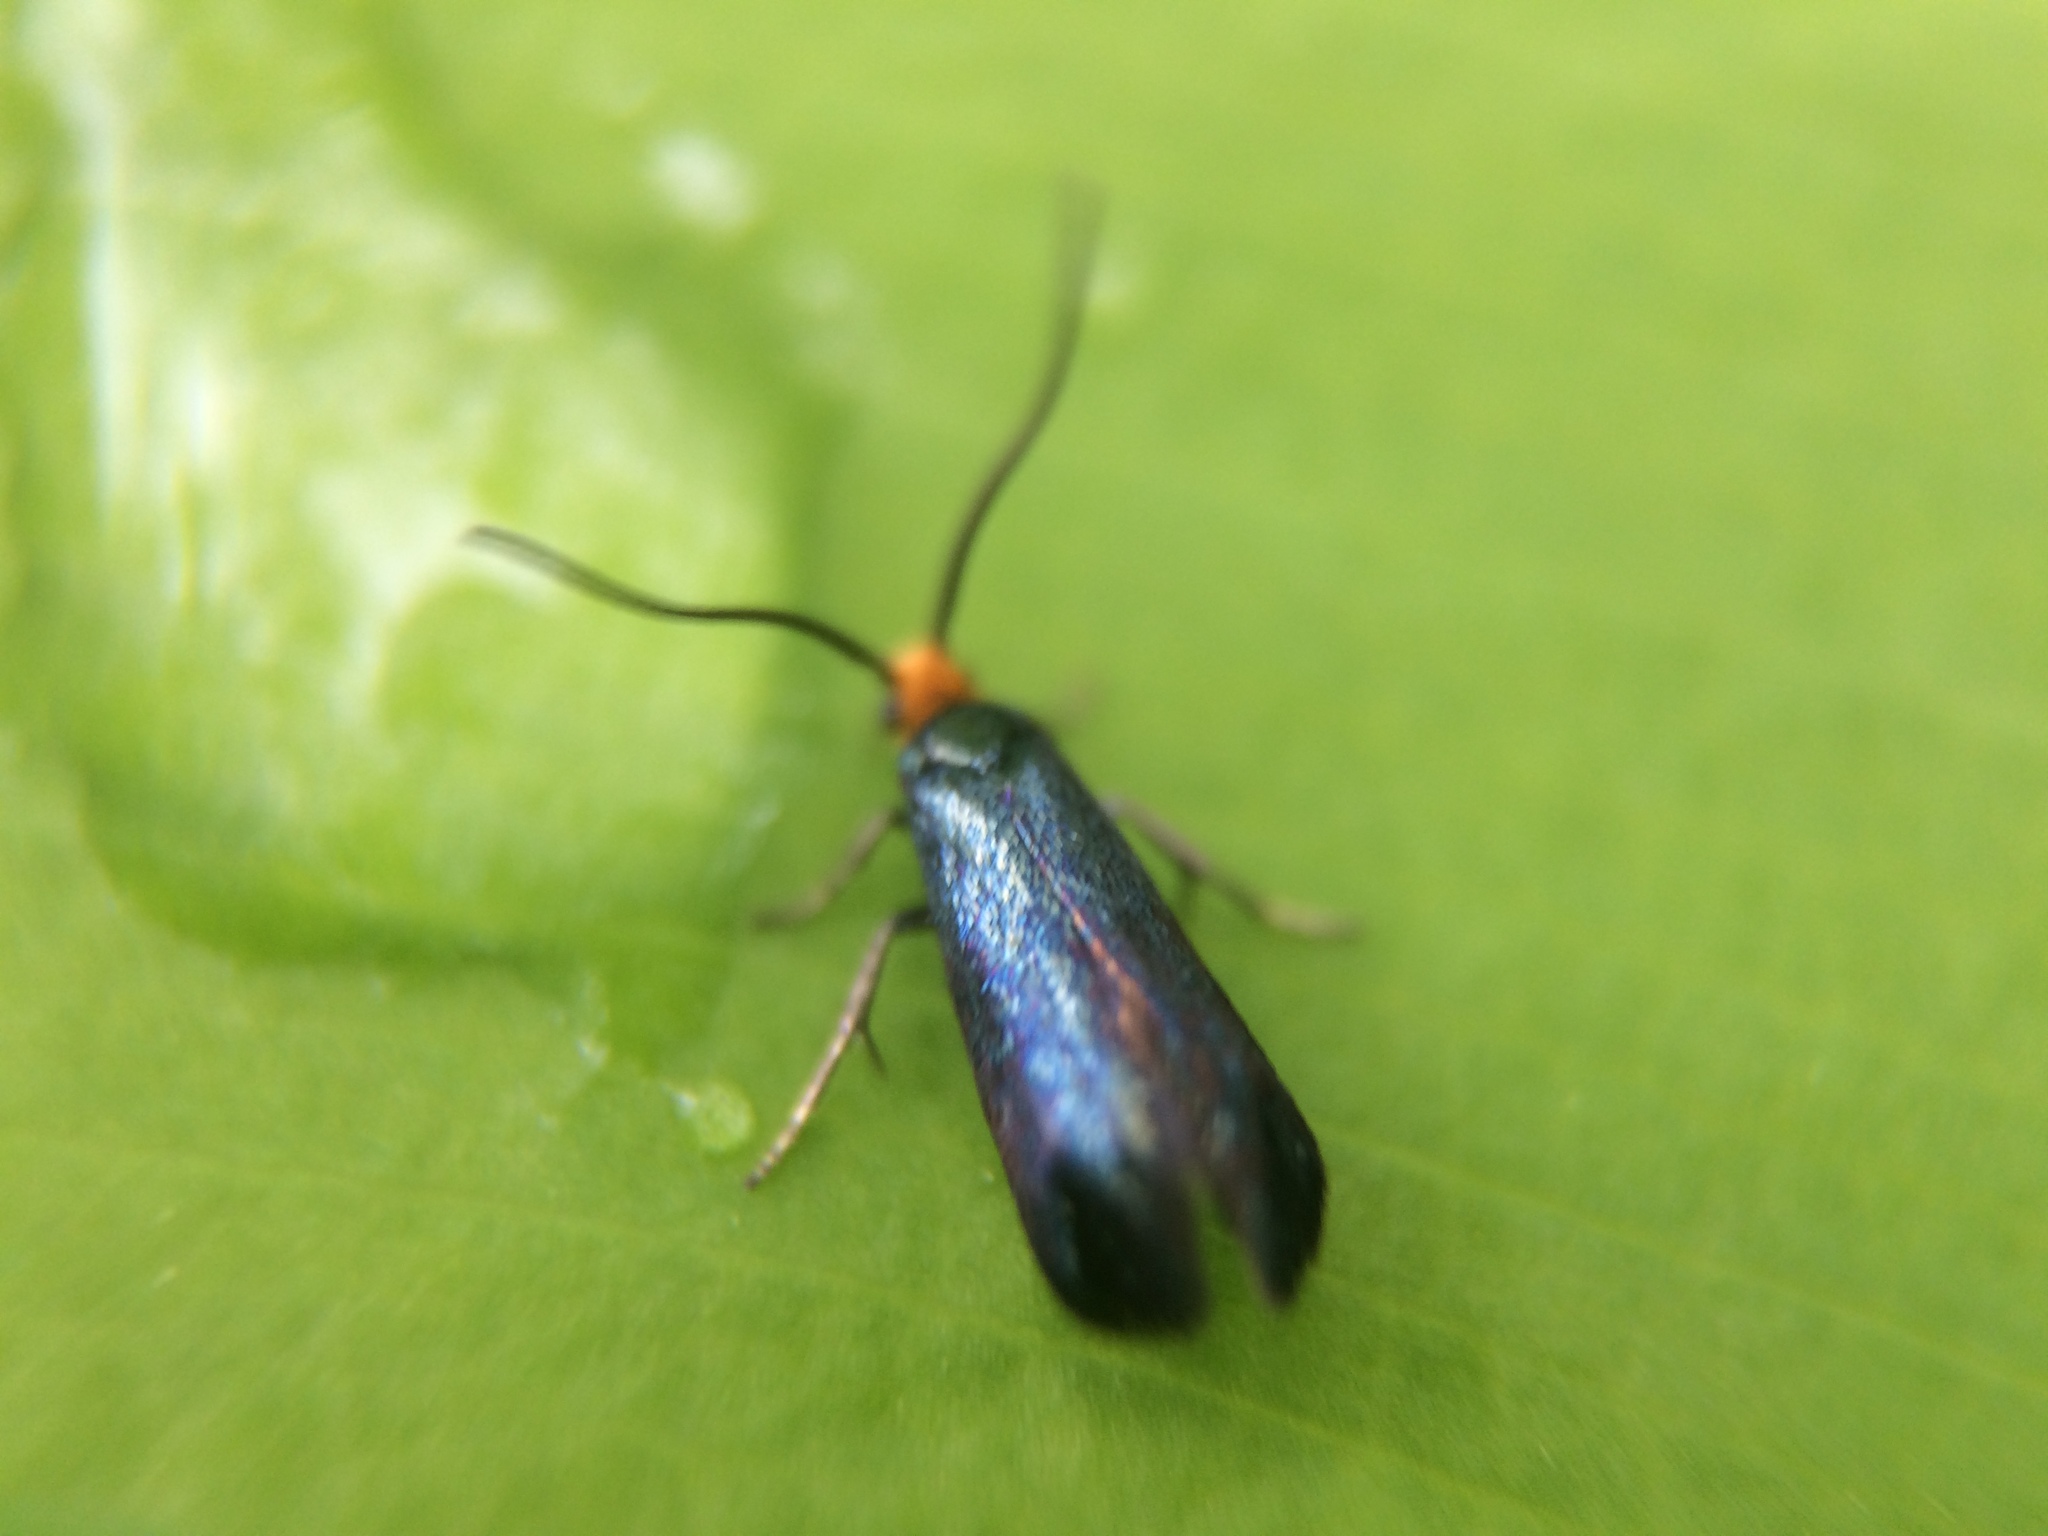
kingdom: Animalia
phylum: Arthropoda
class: Insecta
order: Lepidoptera
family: Incurvariidae
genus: Paraclemensia
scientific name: Paraclemensia acerifoliella
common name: Maple leafcutter
